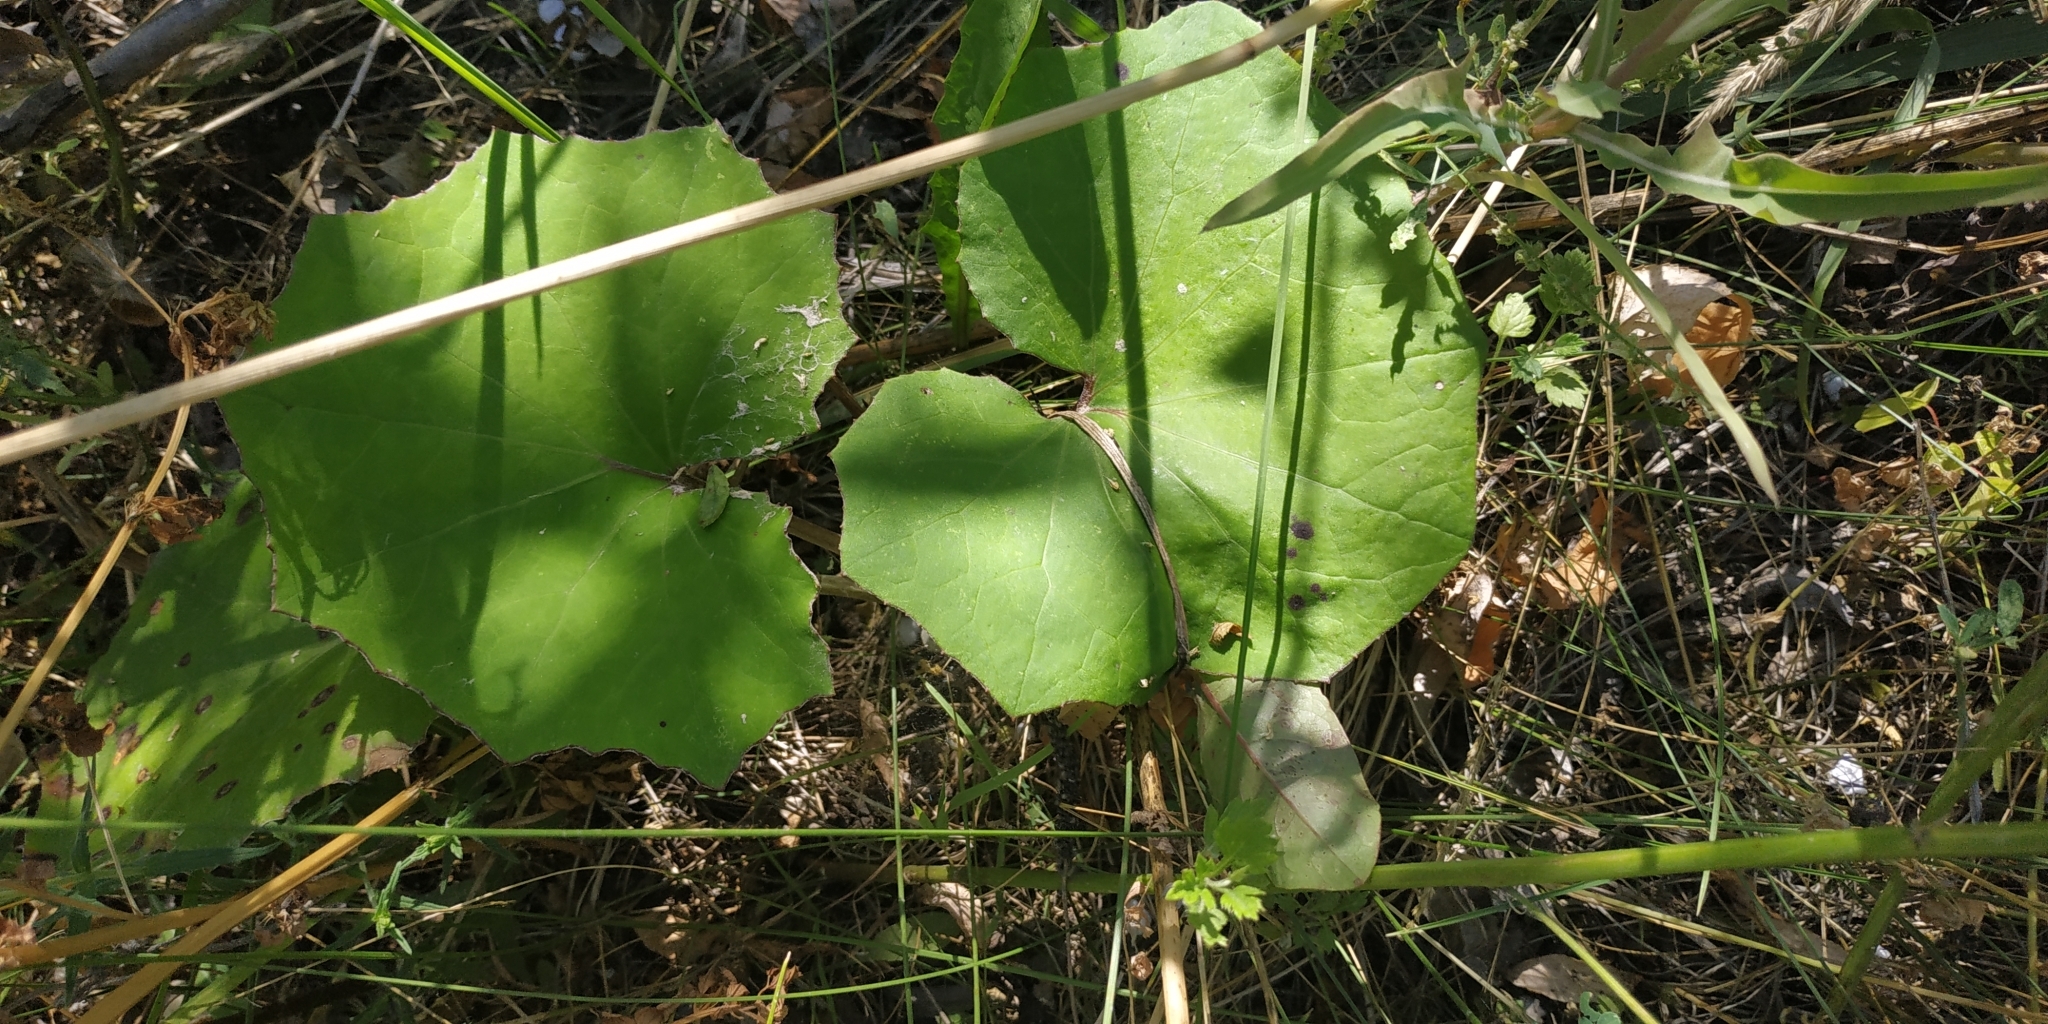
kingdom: Plantae
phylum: Tracheophyta
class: Magnoliopsida
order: Asterales
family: Asteraceae
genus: Tussilago
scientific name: Tussilago farfara
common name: Coltsfoot
